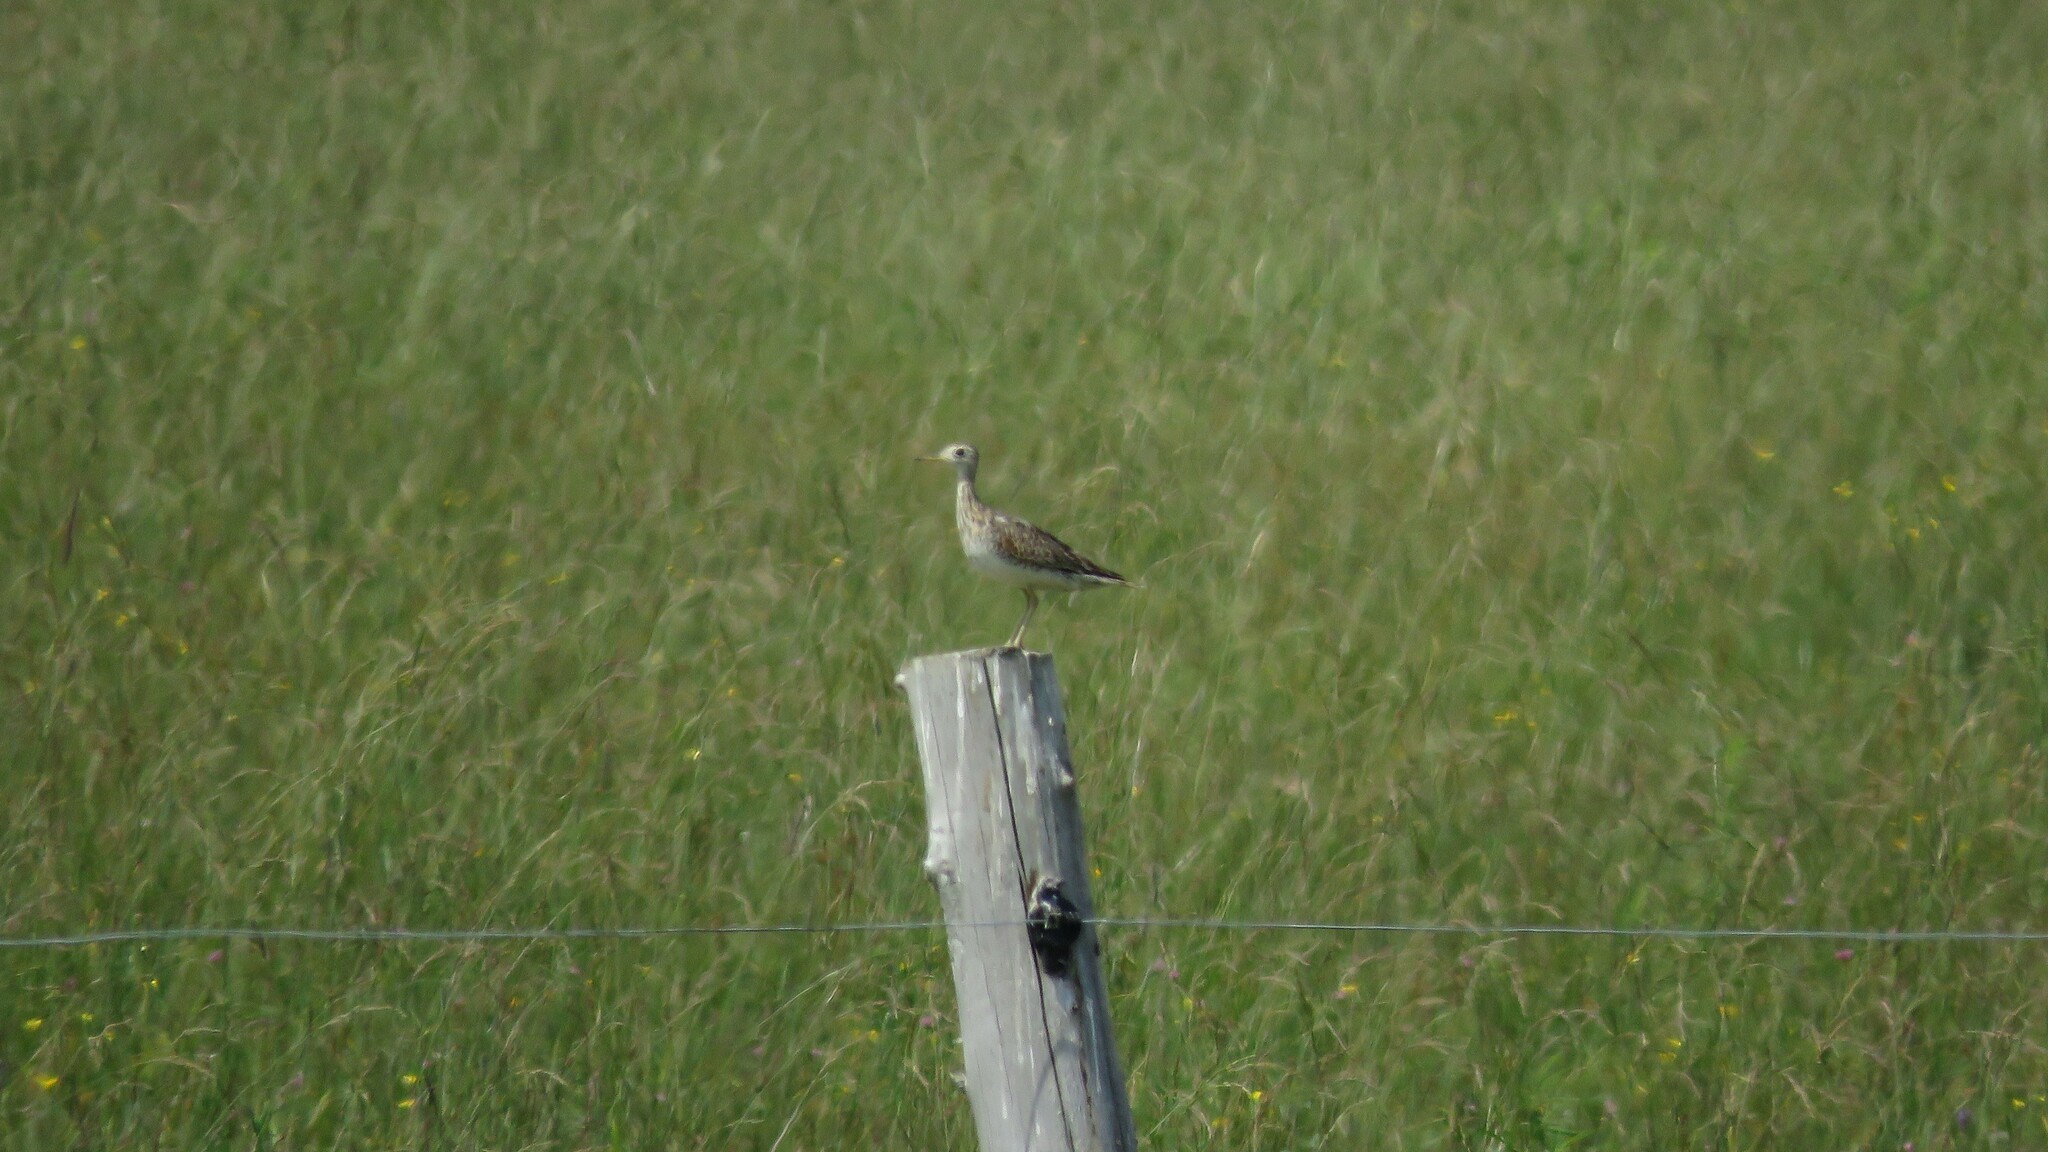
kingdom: Animalia
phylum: Chordata
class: Aves
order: Charadriiformes
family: Scolopacidae
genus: Bartramia
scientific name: Bartramia longicauda
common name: Upland sandpiper
